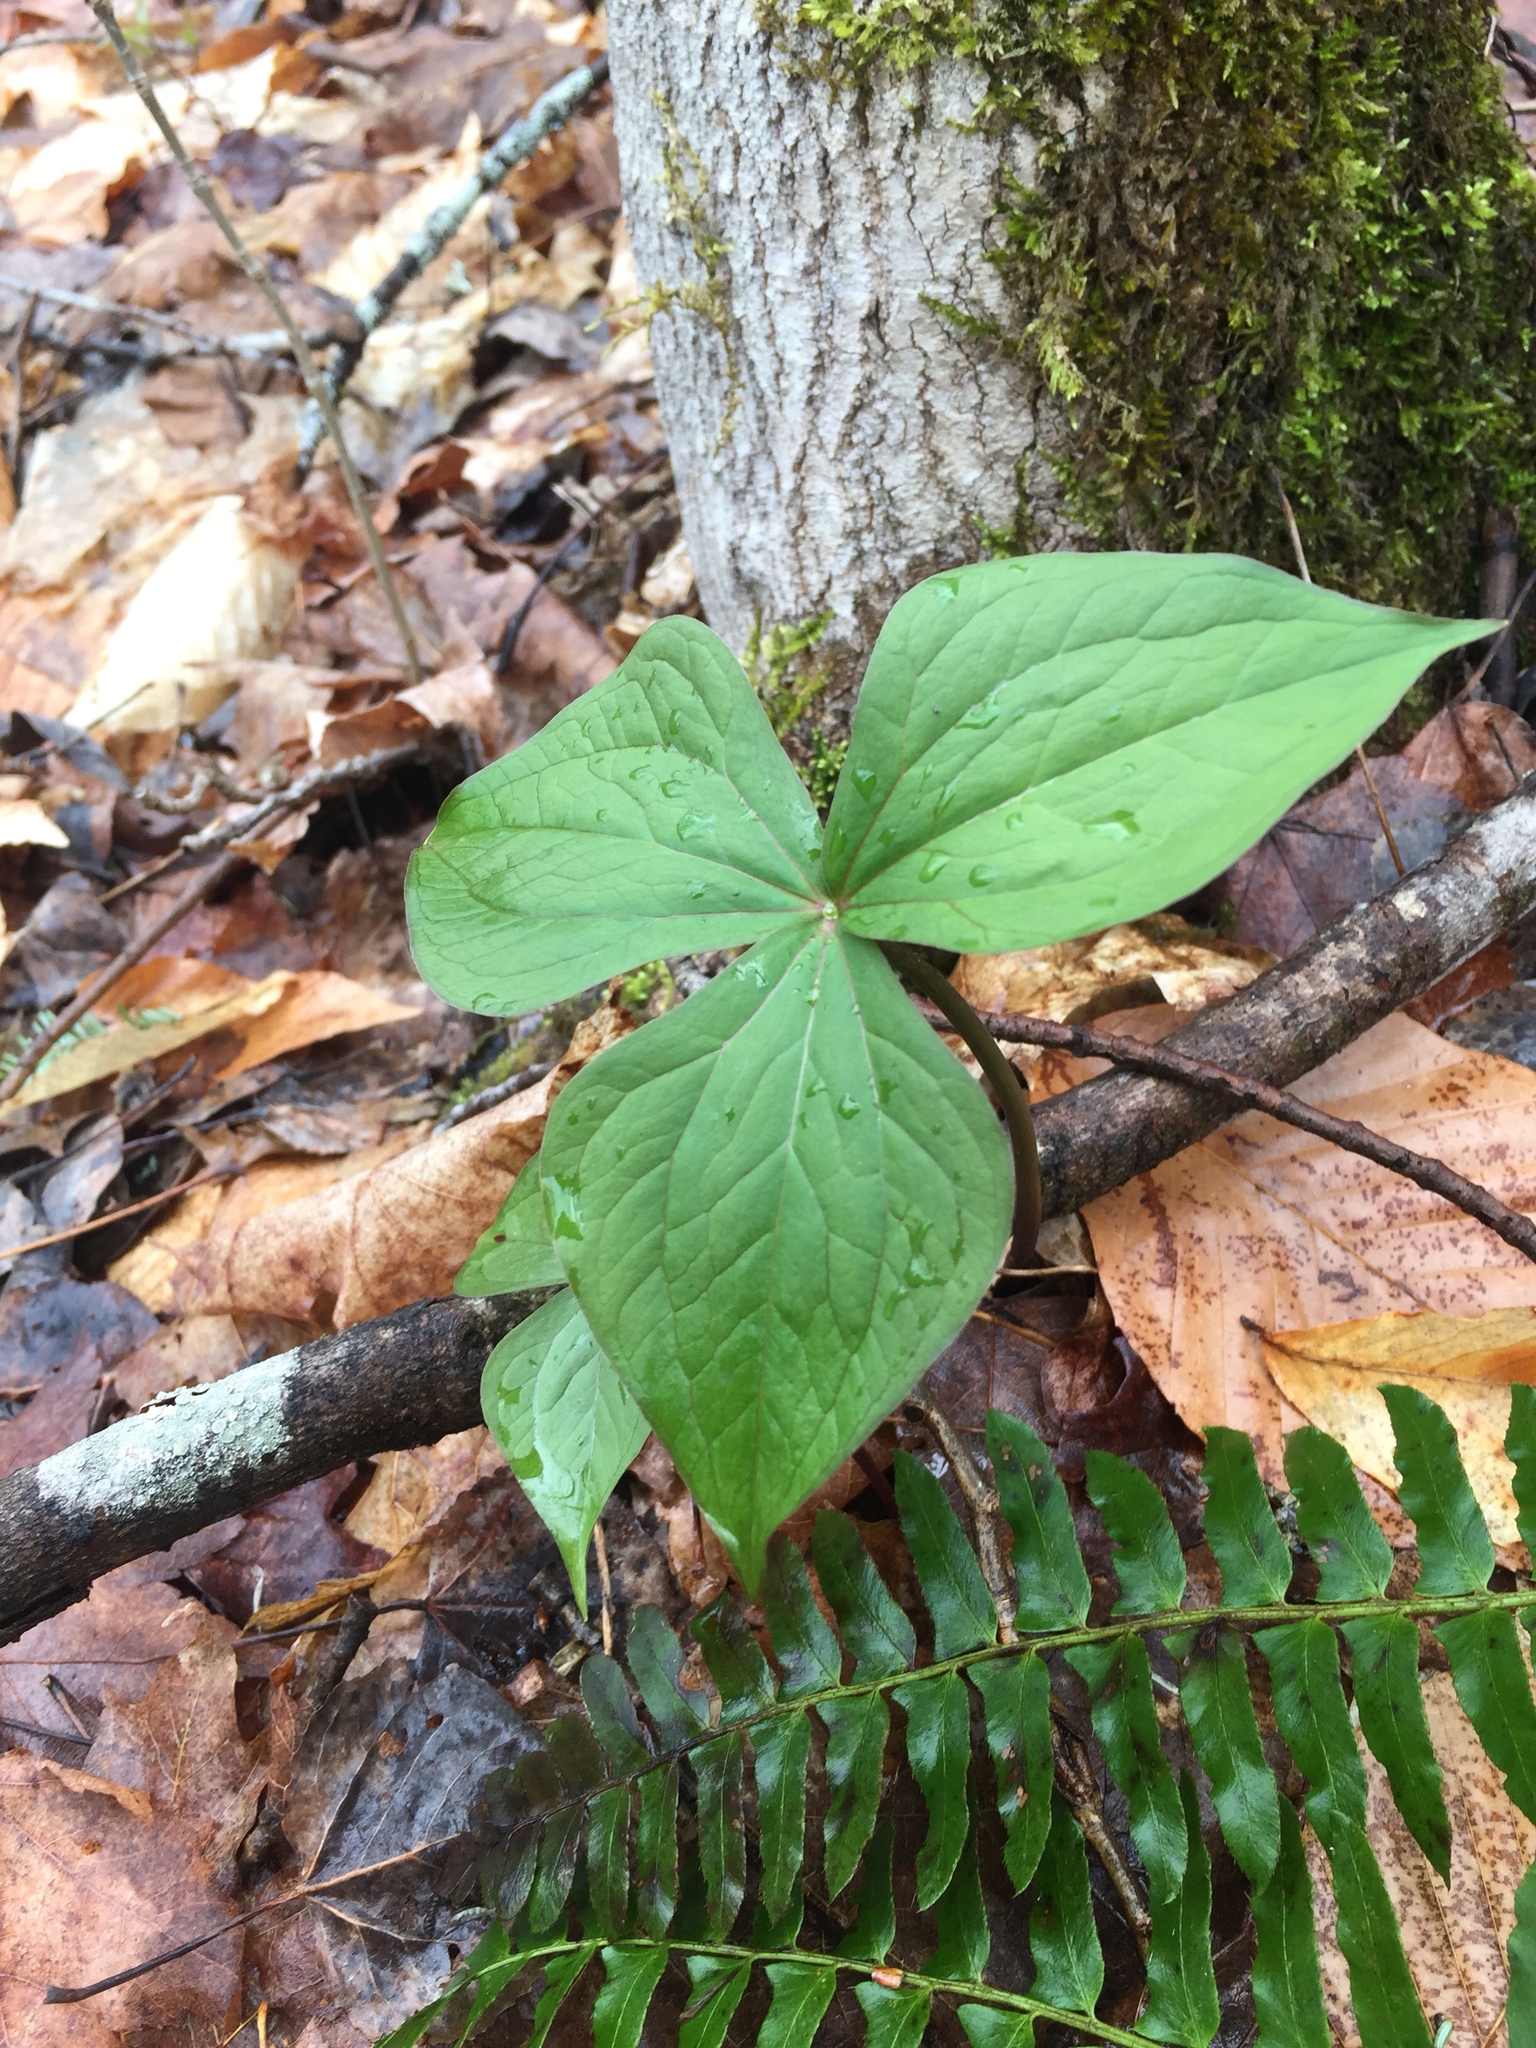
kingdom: Plantae
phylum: Tracheophyta
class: Liliopsida
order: Liliales
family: Melanthiaceae
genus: Trillium
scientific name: Trillium erectum
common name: Purple trillium
